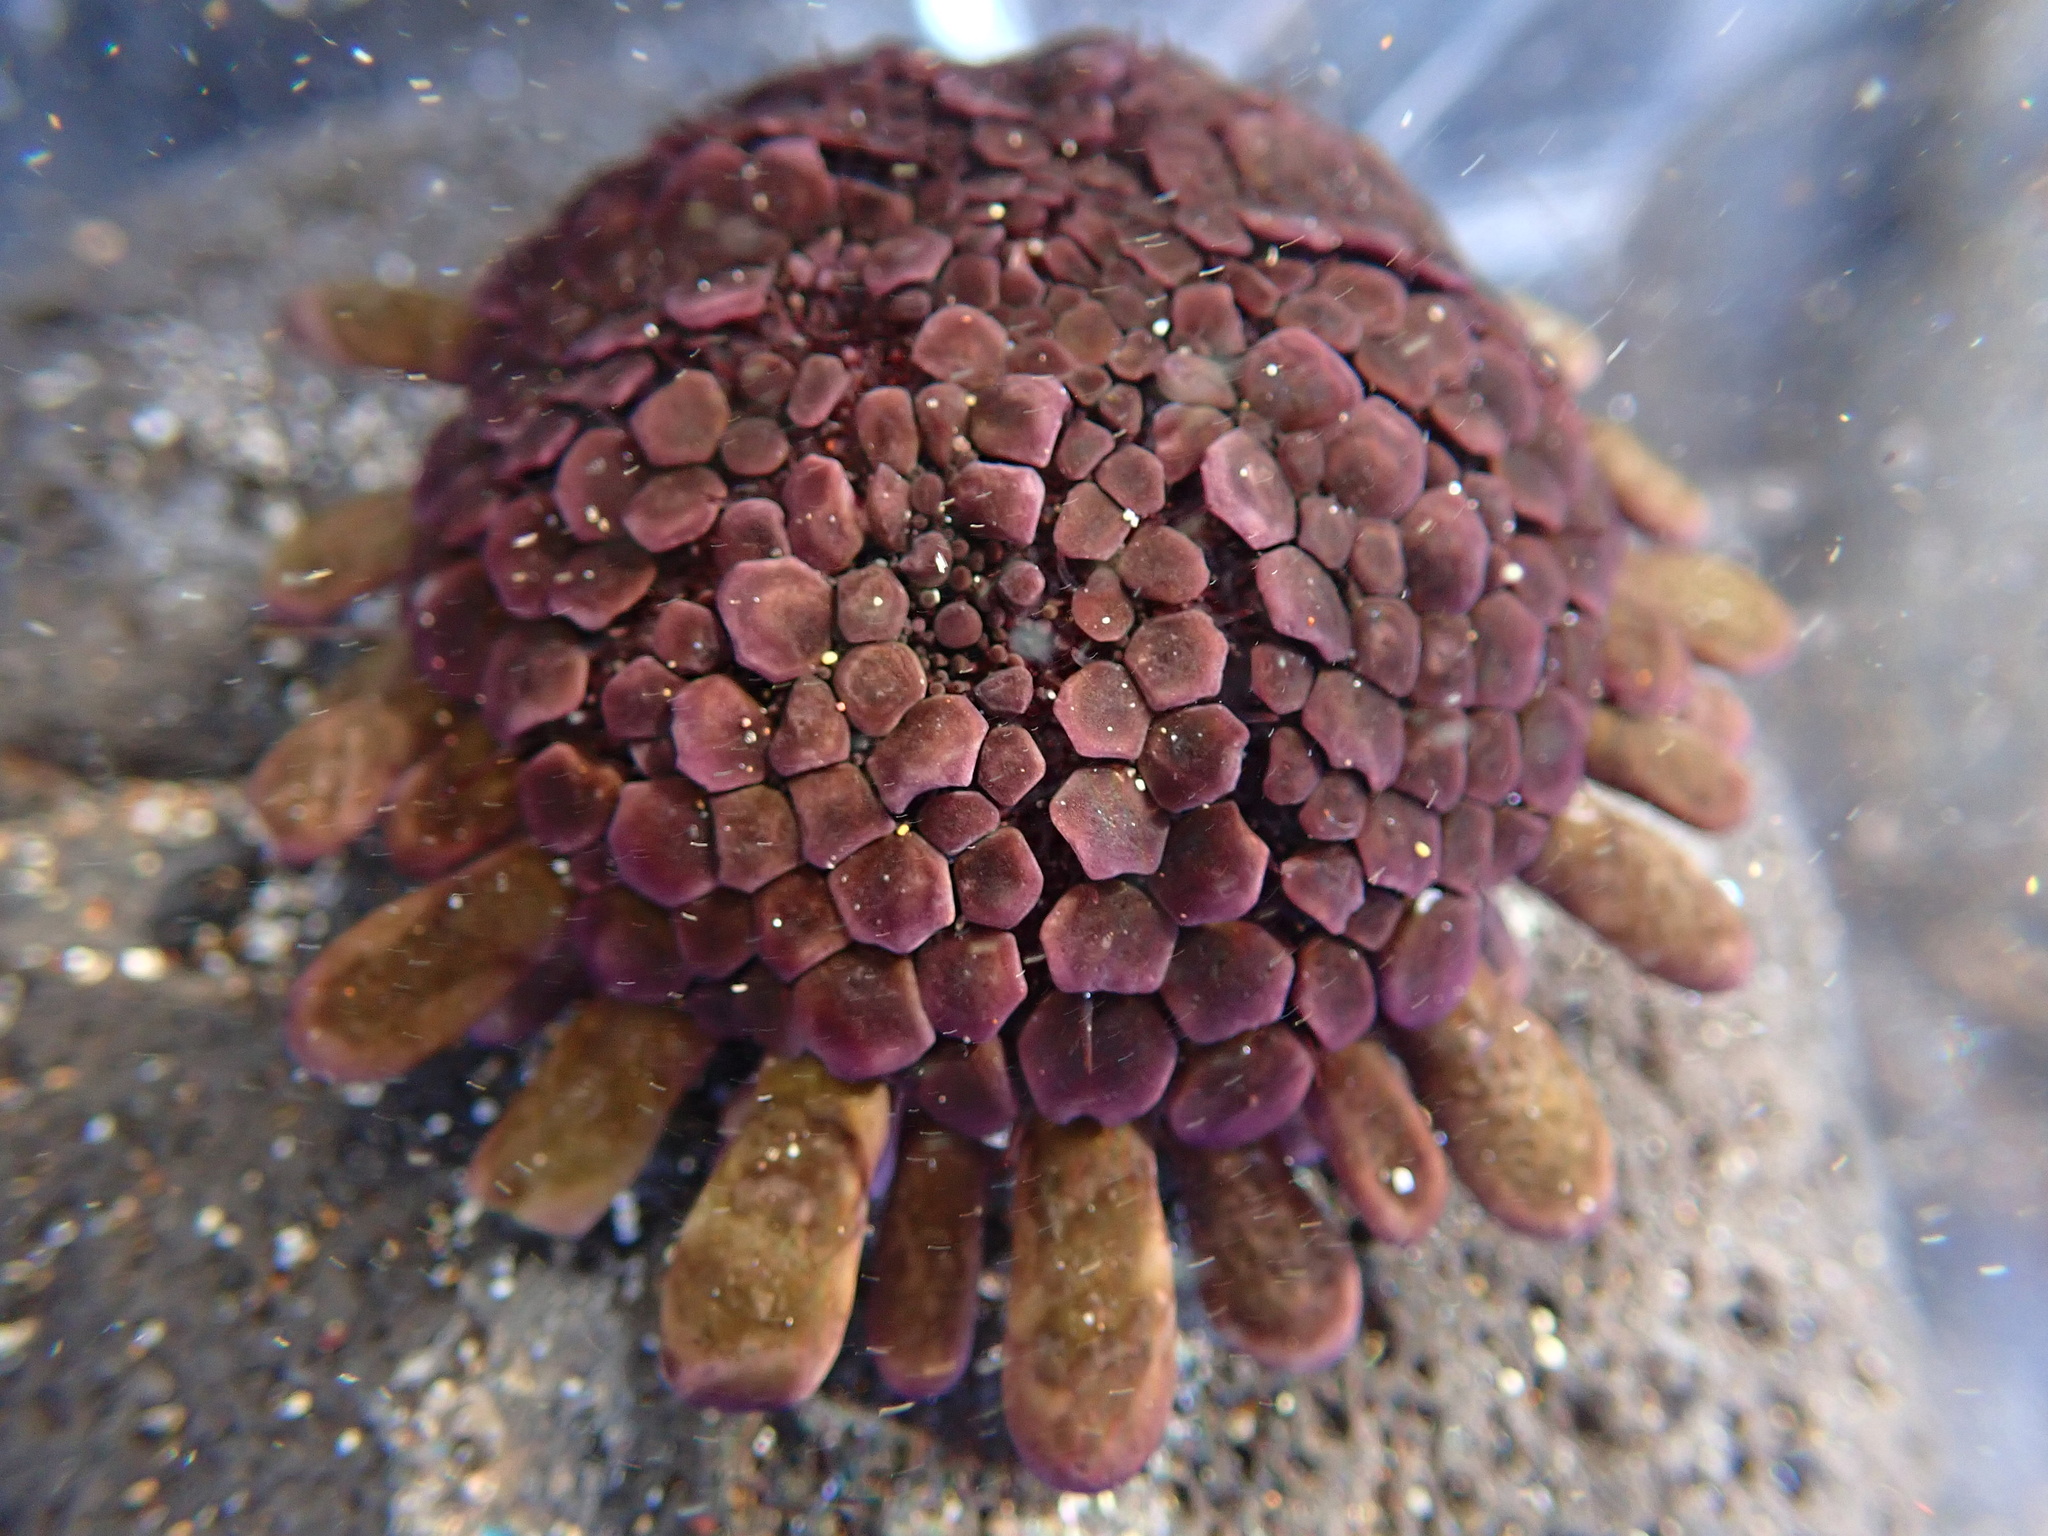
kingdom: Animalia
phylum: Echinodermata
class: Echinoidea
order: Camarodonta
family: Echinometridae
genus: Colobocentrotus
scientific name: Colobocentrotus atratus
